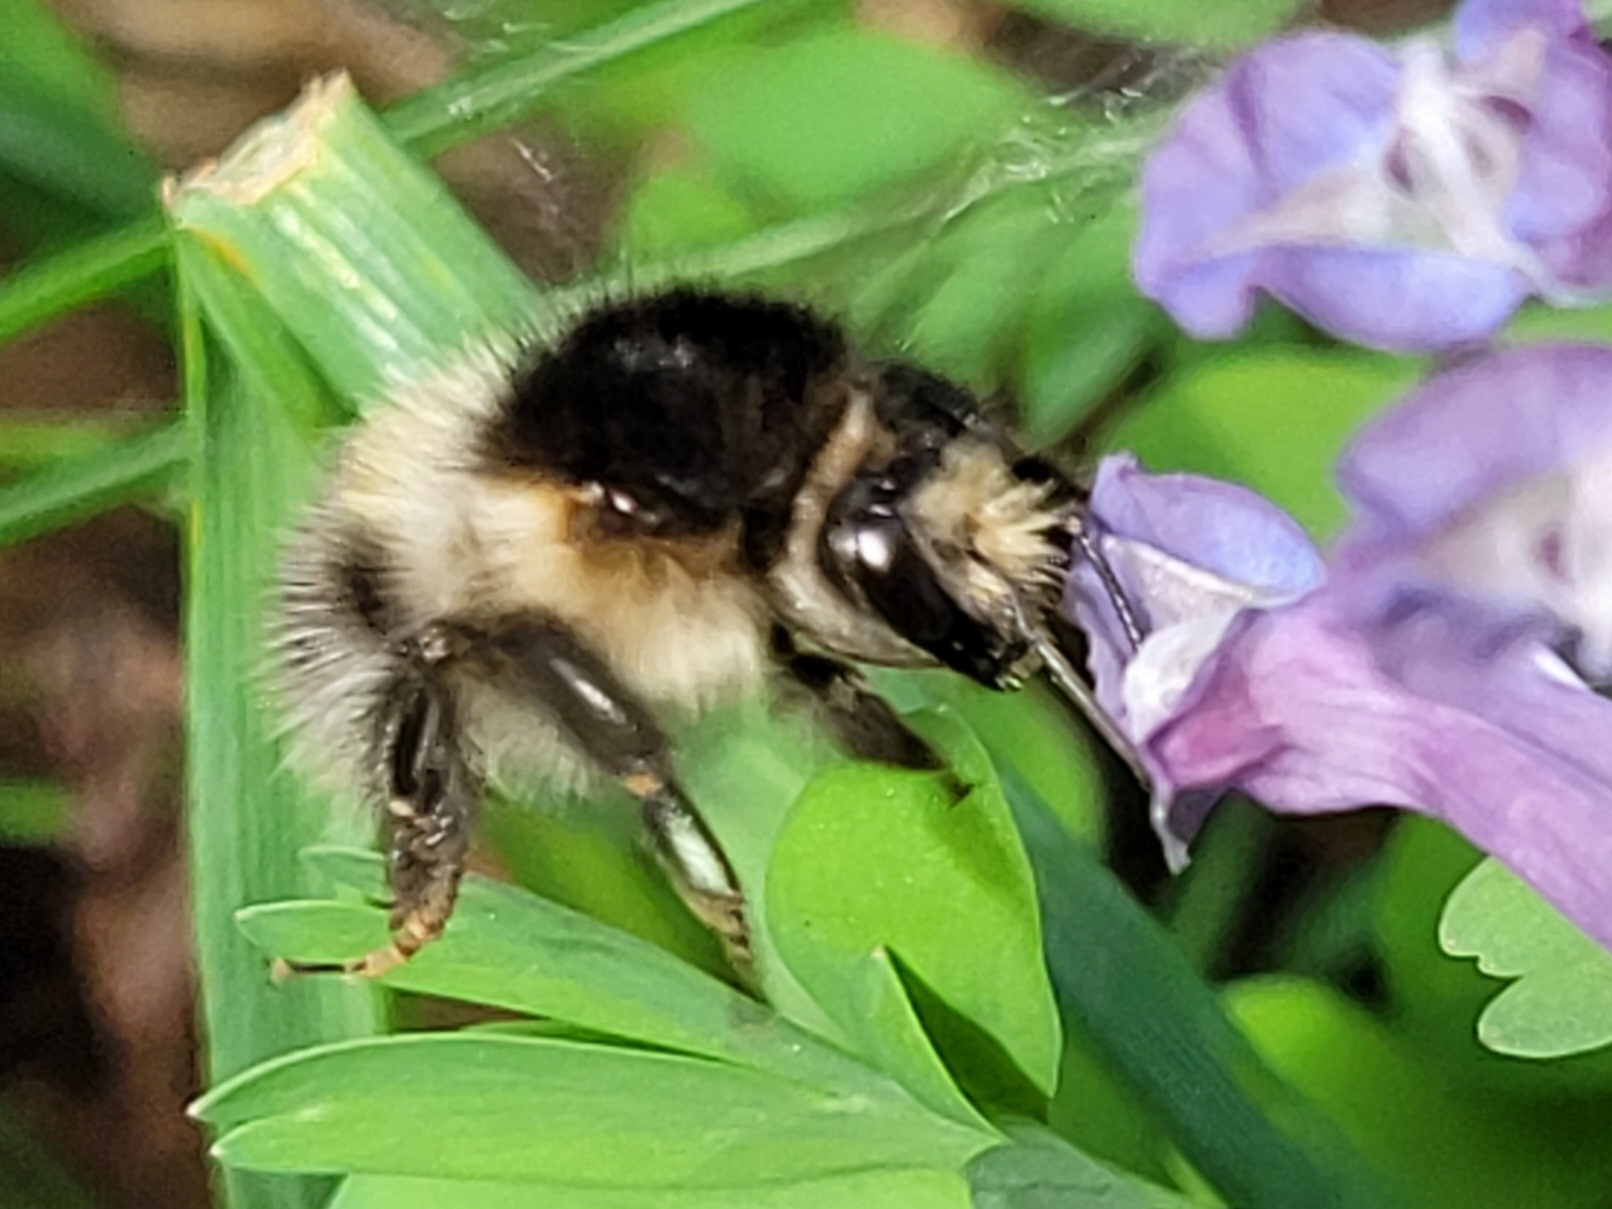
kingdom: Animalia
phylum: Arthropoda
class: Insecta
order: Hymenoptera
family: Apidae
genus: Bombus
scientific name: Bombus humilis
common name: Brown-banded carder-bee
